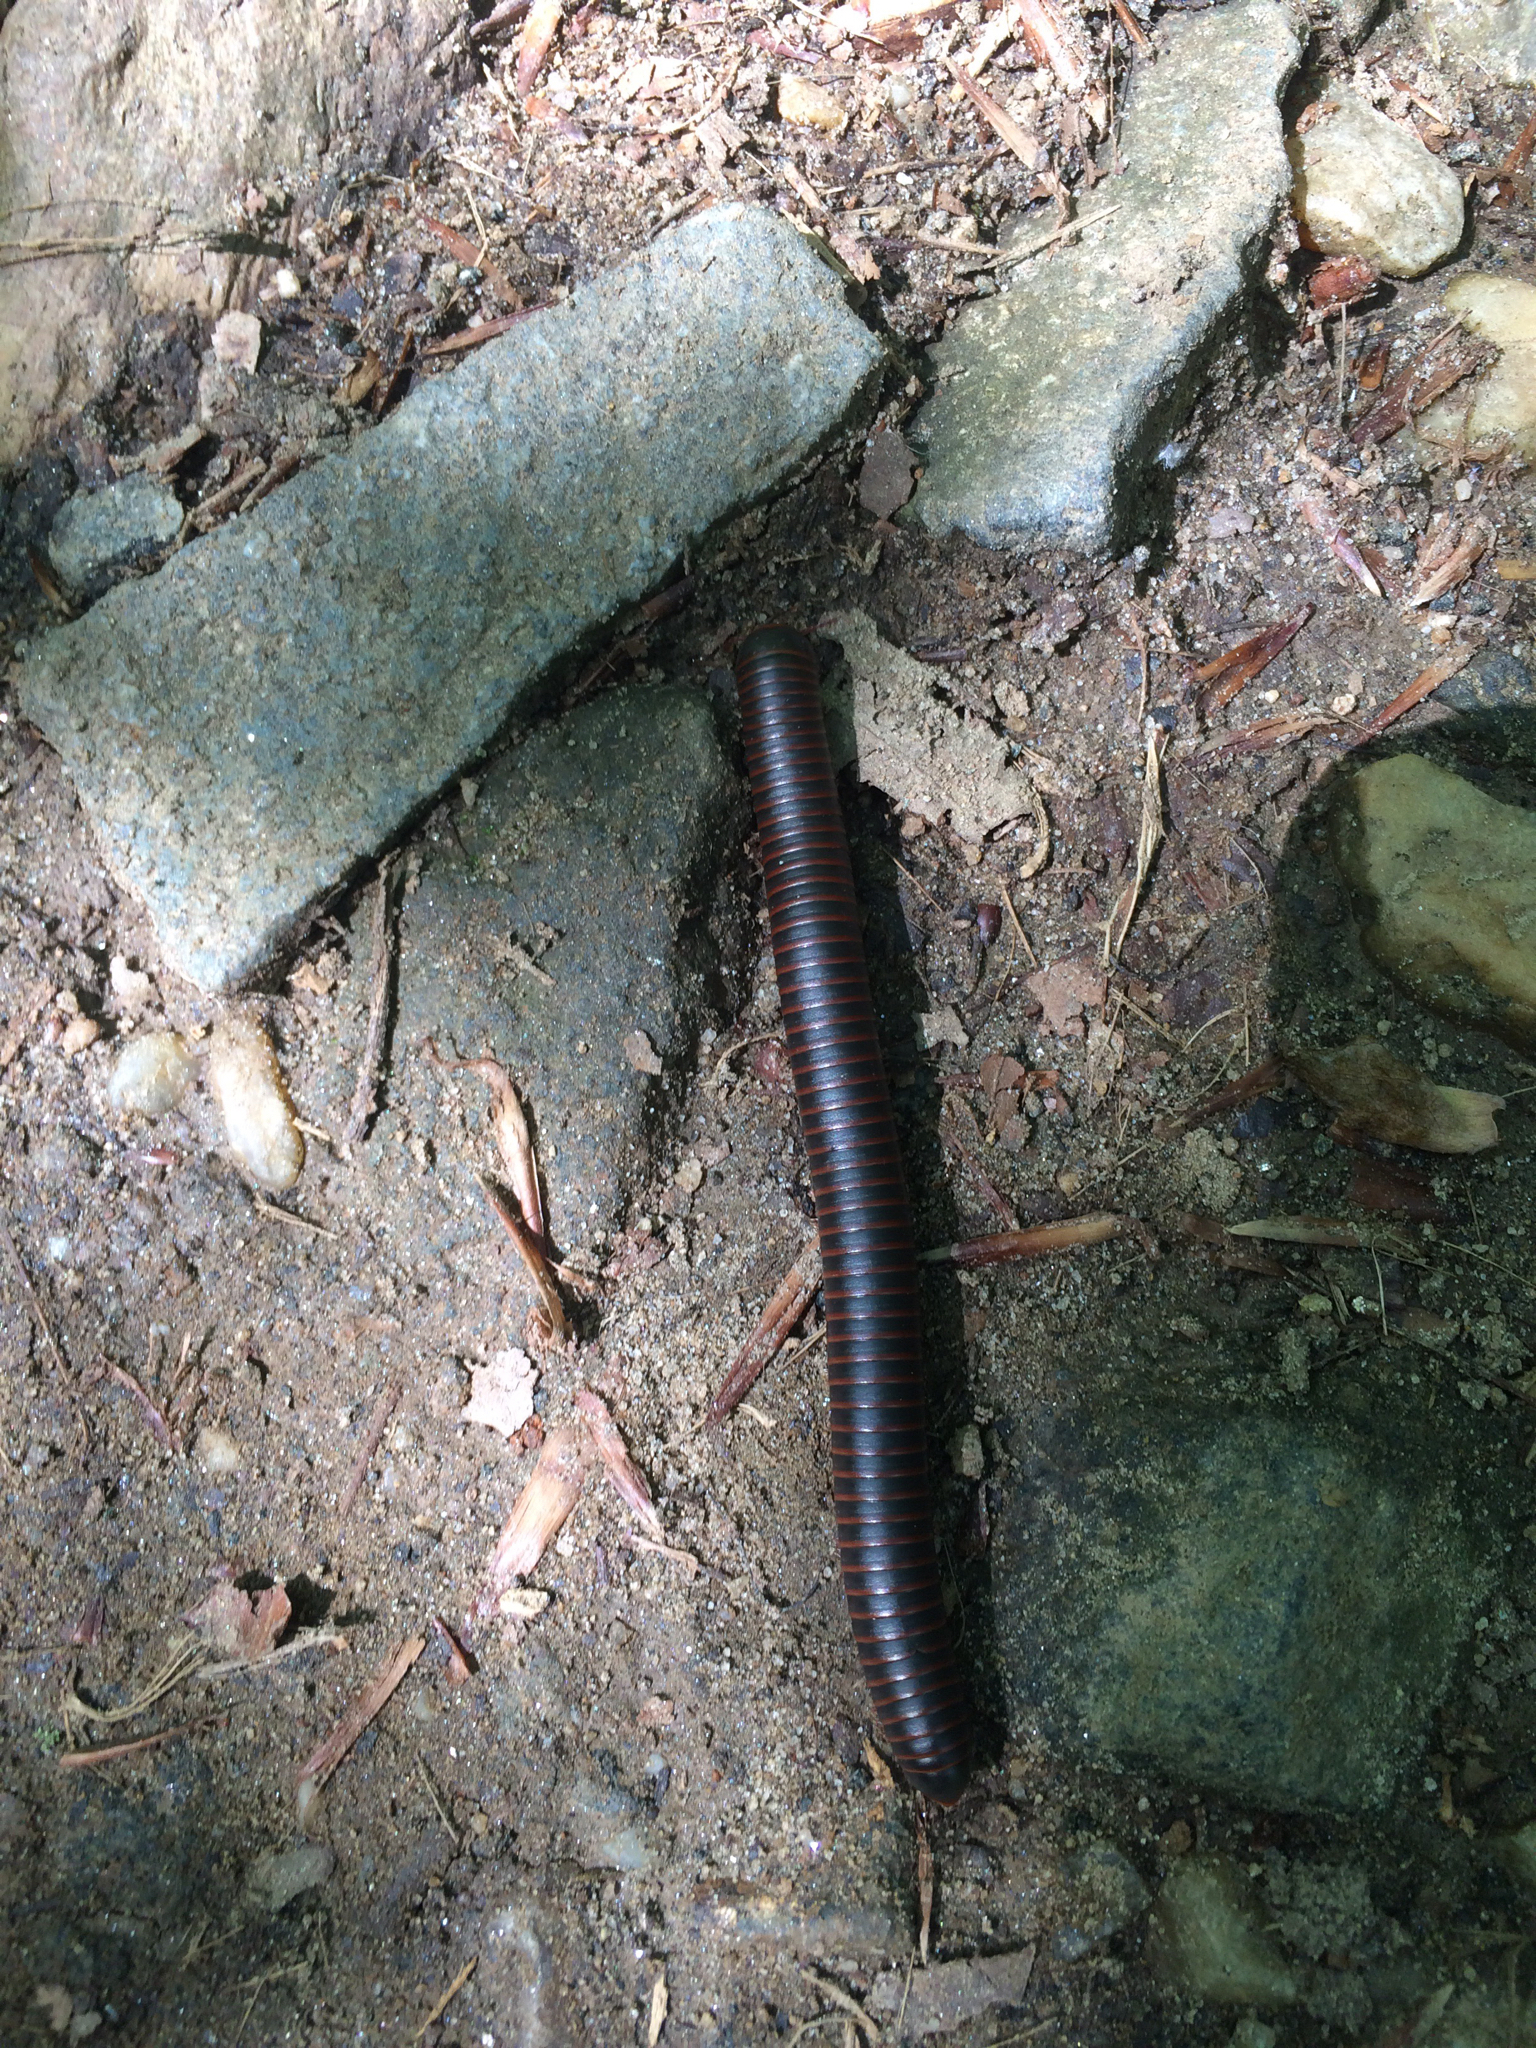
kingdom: Animalia
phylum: Arthropoda
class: Diplopoda
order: Spirobolida
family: Spirobolidae
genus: Narceus
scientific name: Narceus
